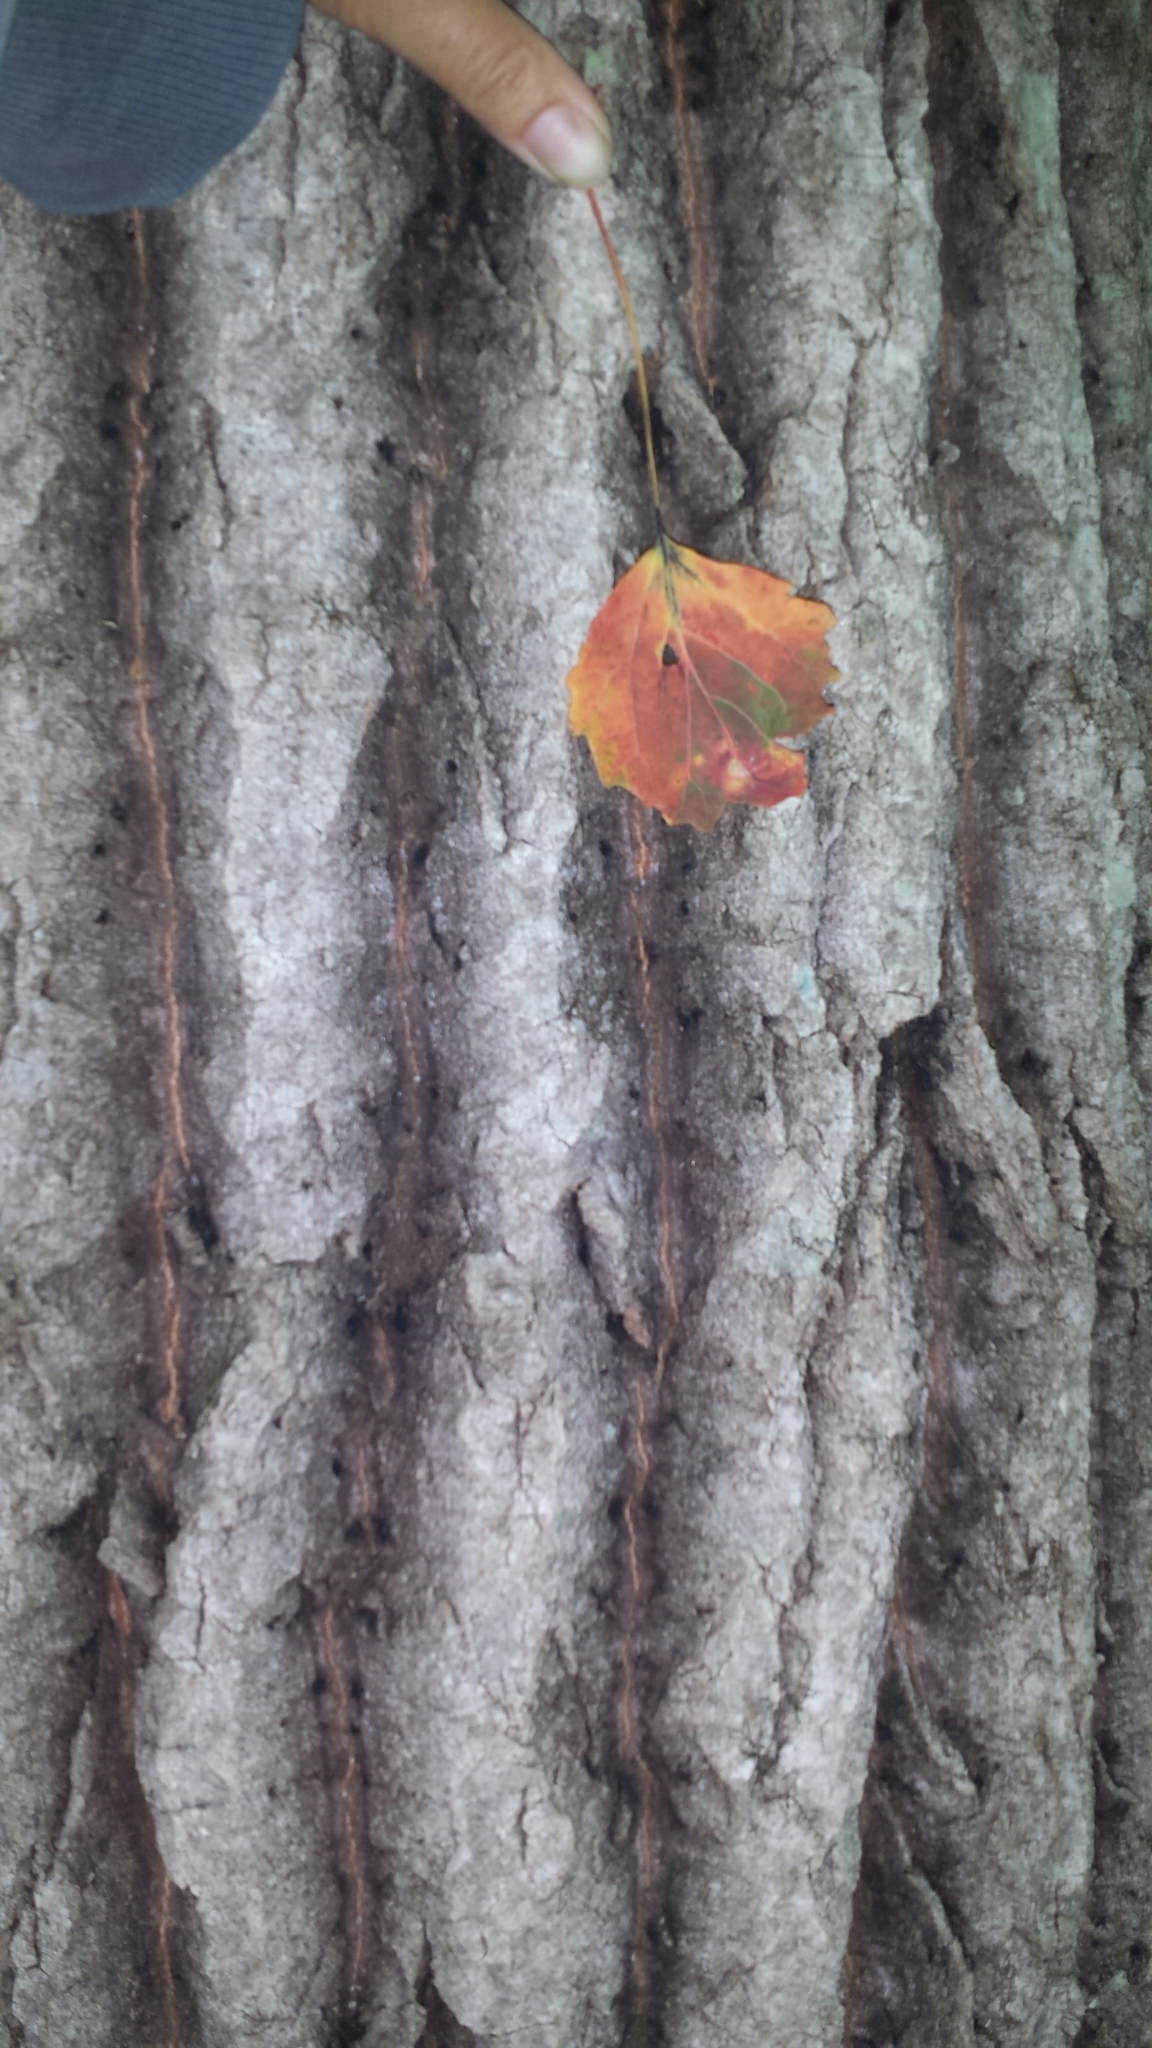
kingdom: Plantae
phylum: Tracheophyta
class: Magnoliopsida
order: Malpighiales
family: Salicaceae
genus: Populus
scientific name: Populus grandidentata
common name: Bigtooth aspen
